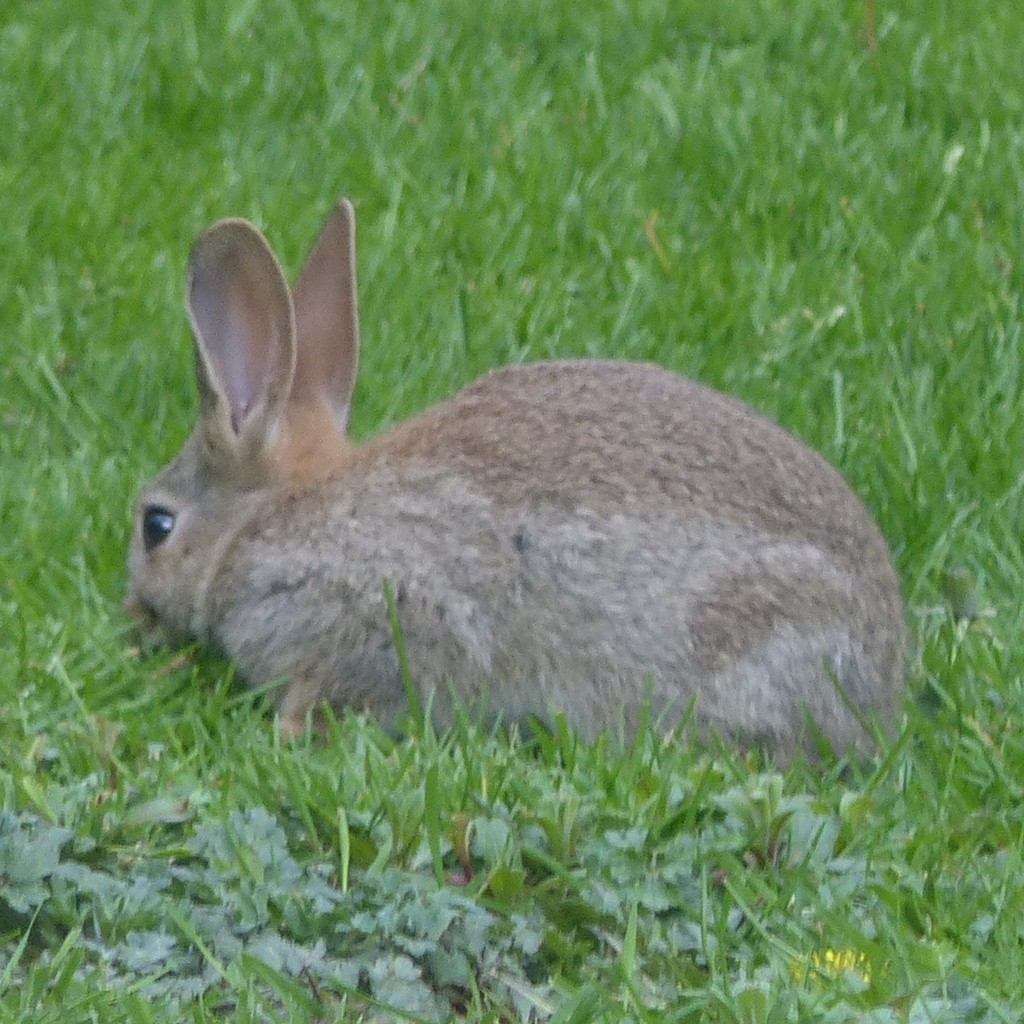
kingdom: Animalia
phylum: Chordata
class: Mammalia
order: Lagomorpha
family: Leporidae
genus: Oryctolagus
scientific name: Oryctolagus cuniculus
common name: European rabbit
